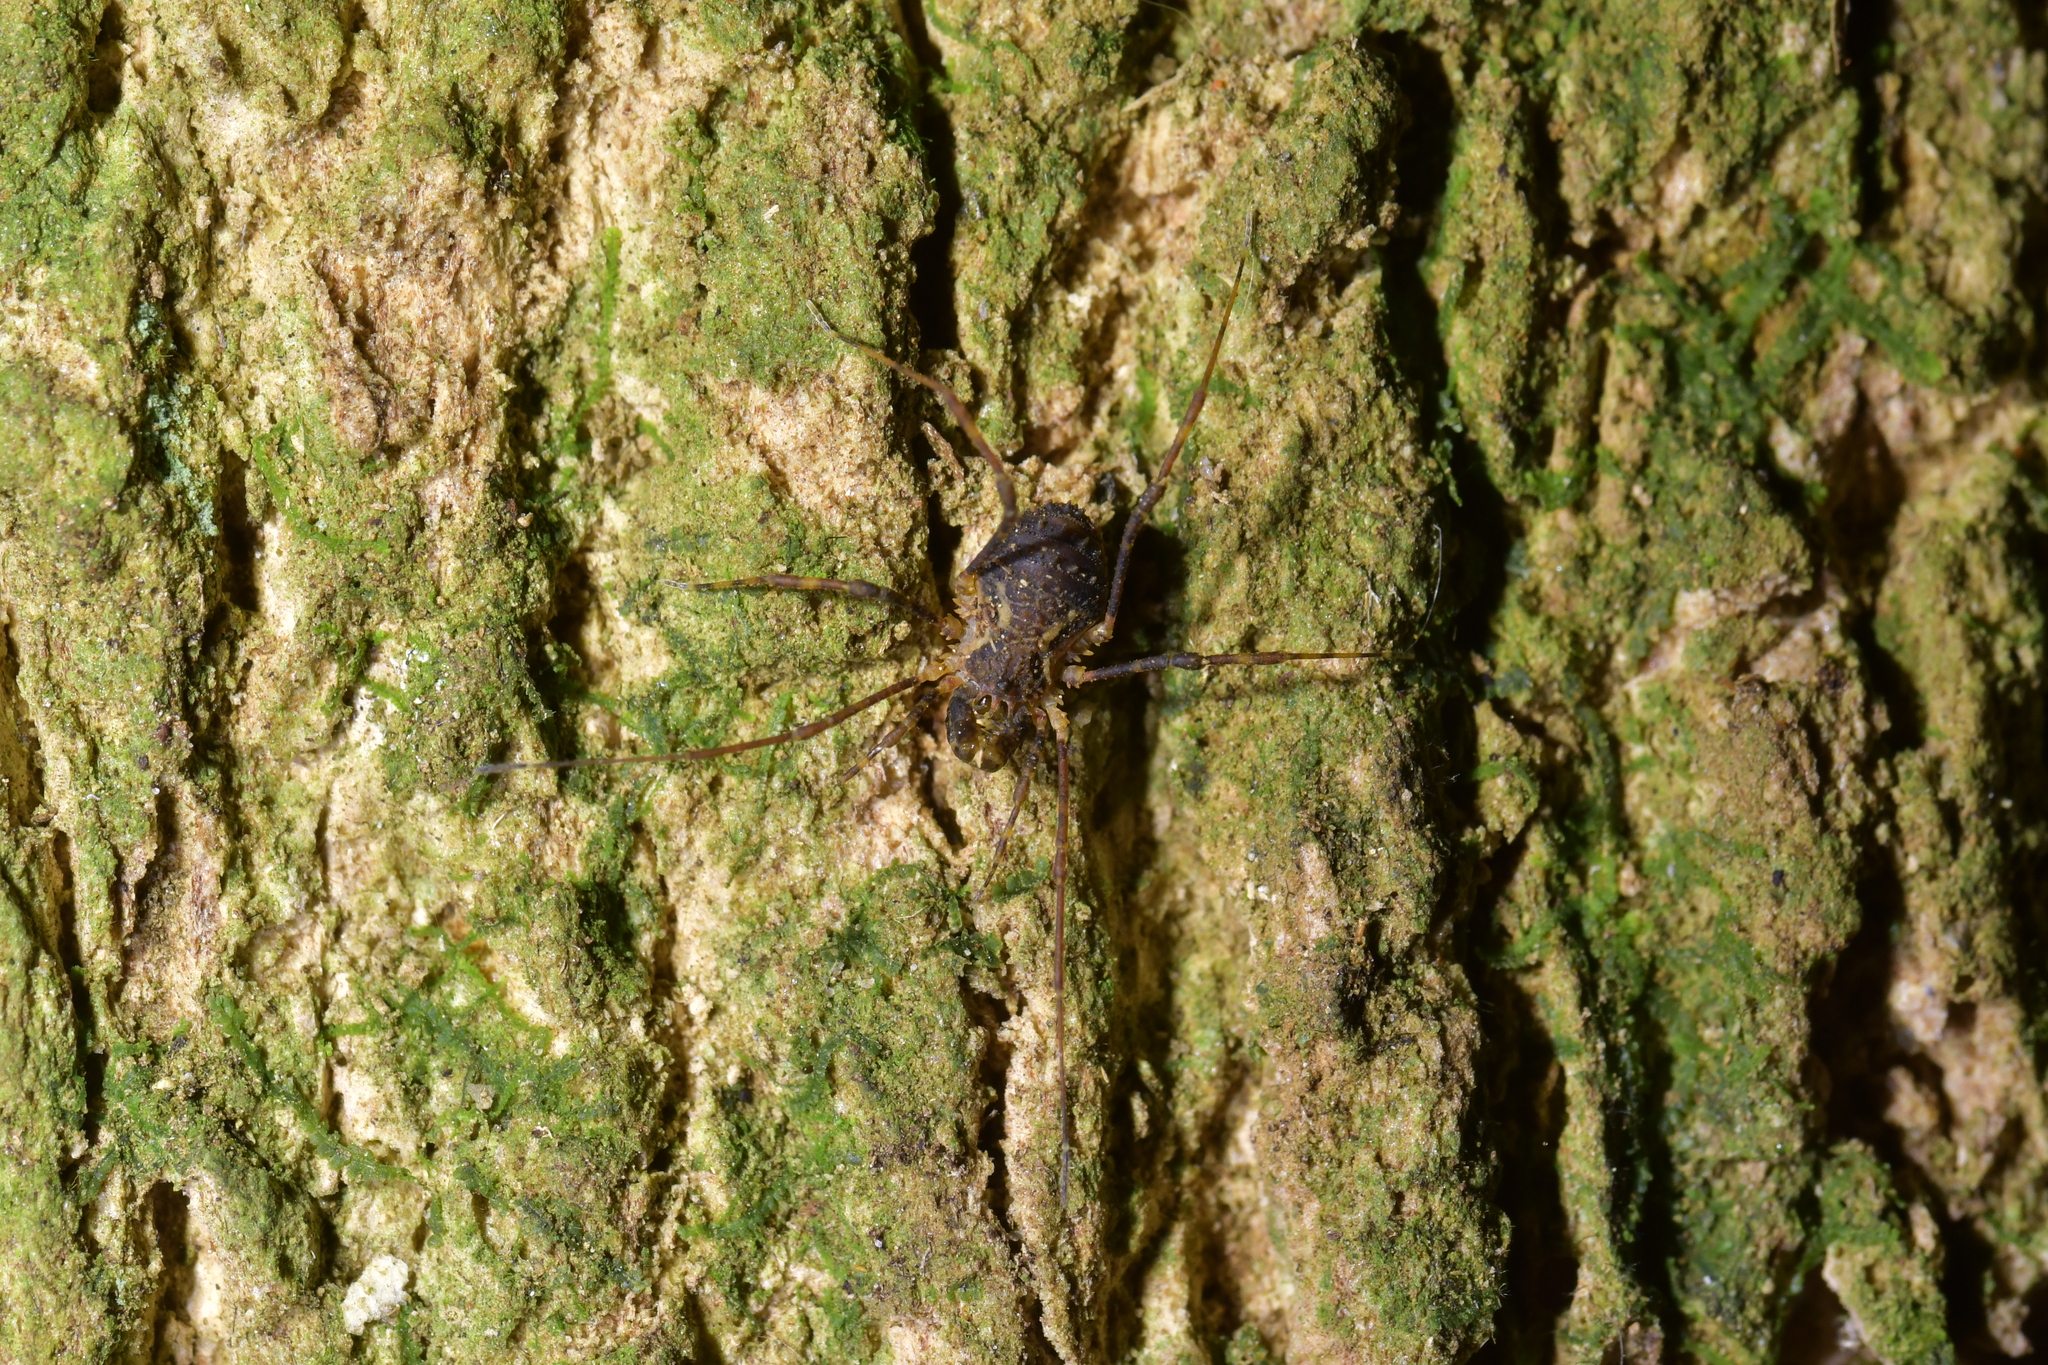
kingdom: Animalia
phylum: Arthropoda
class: Arachnida
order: Opiliones
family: Triaenonychidae
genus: Algidia
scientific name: Algidia chiltoni
